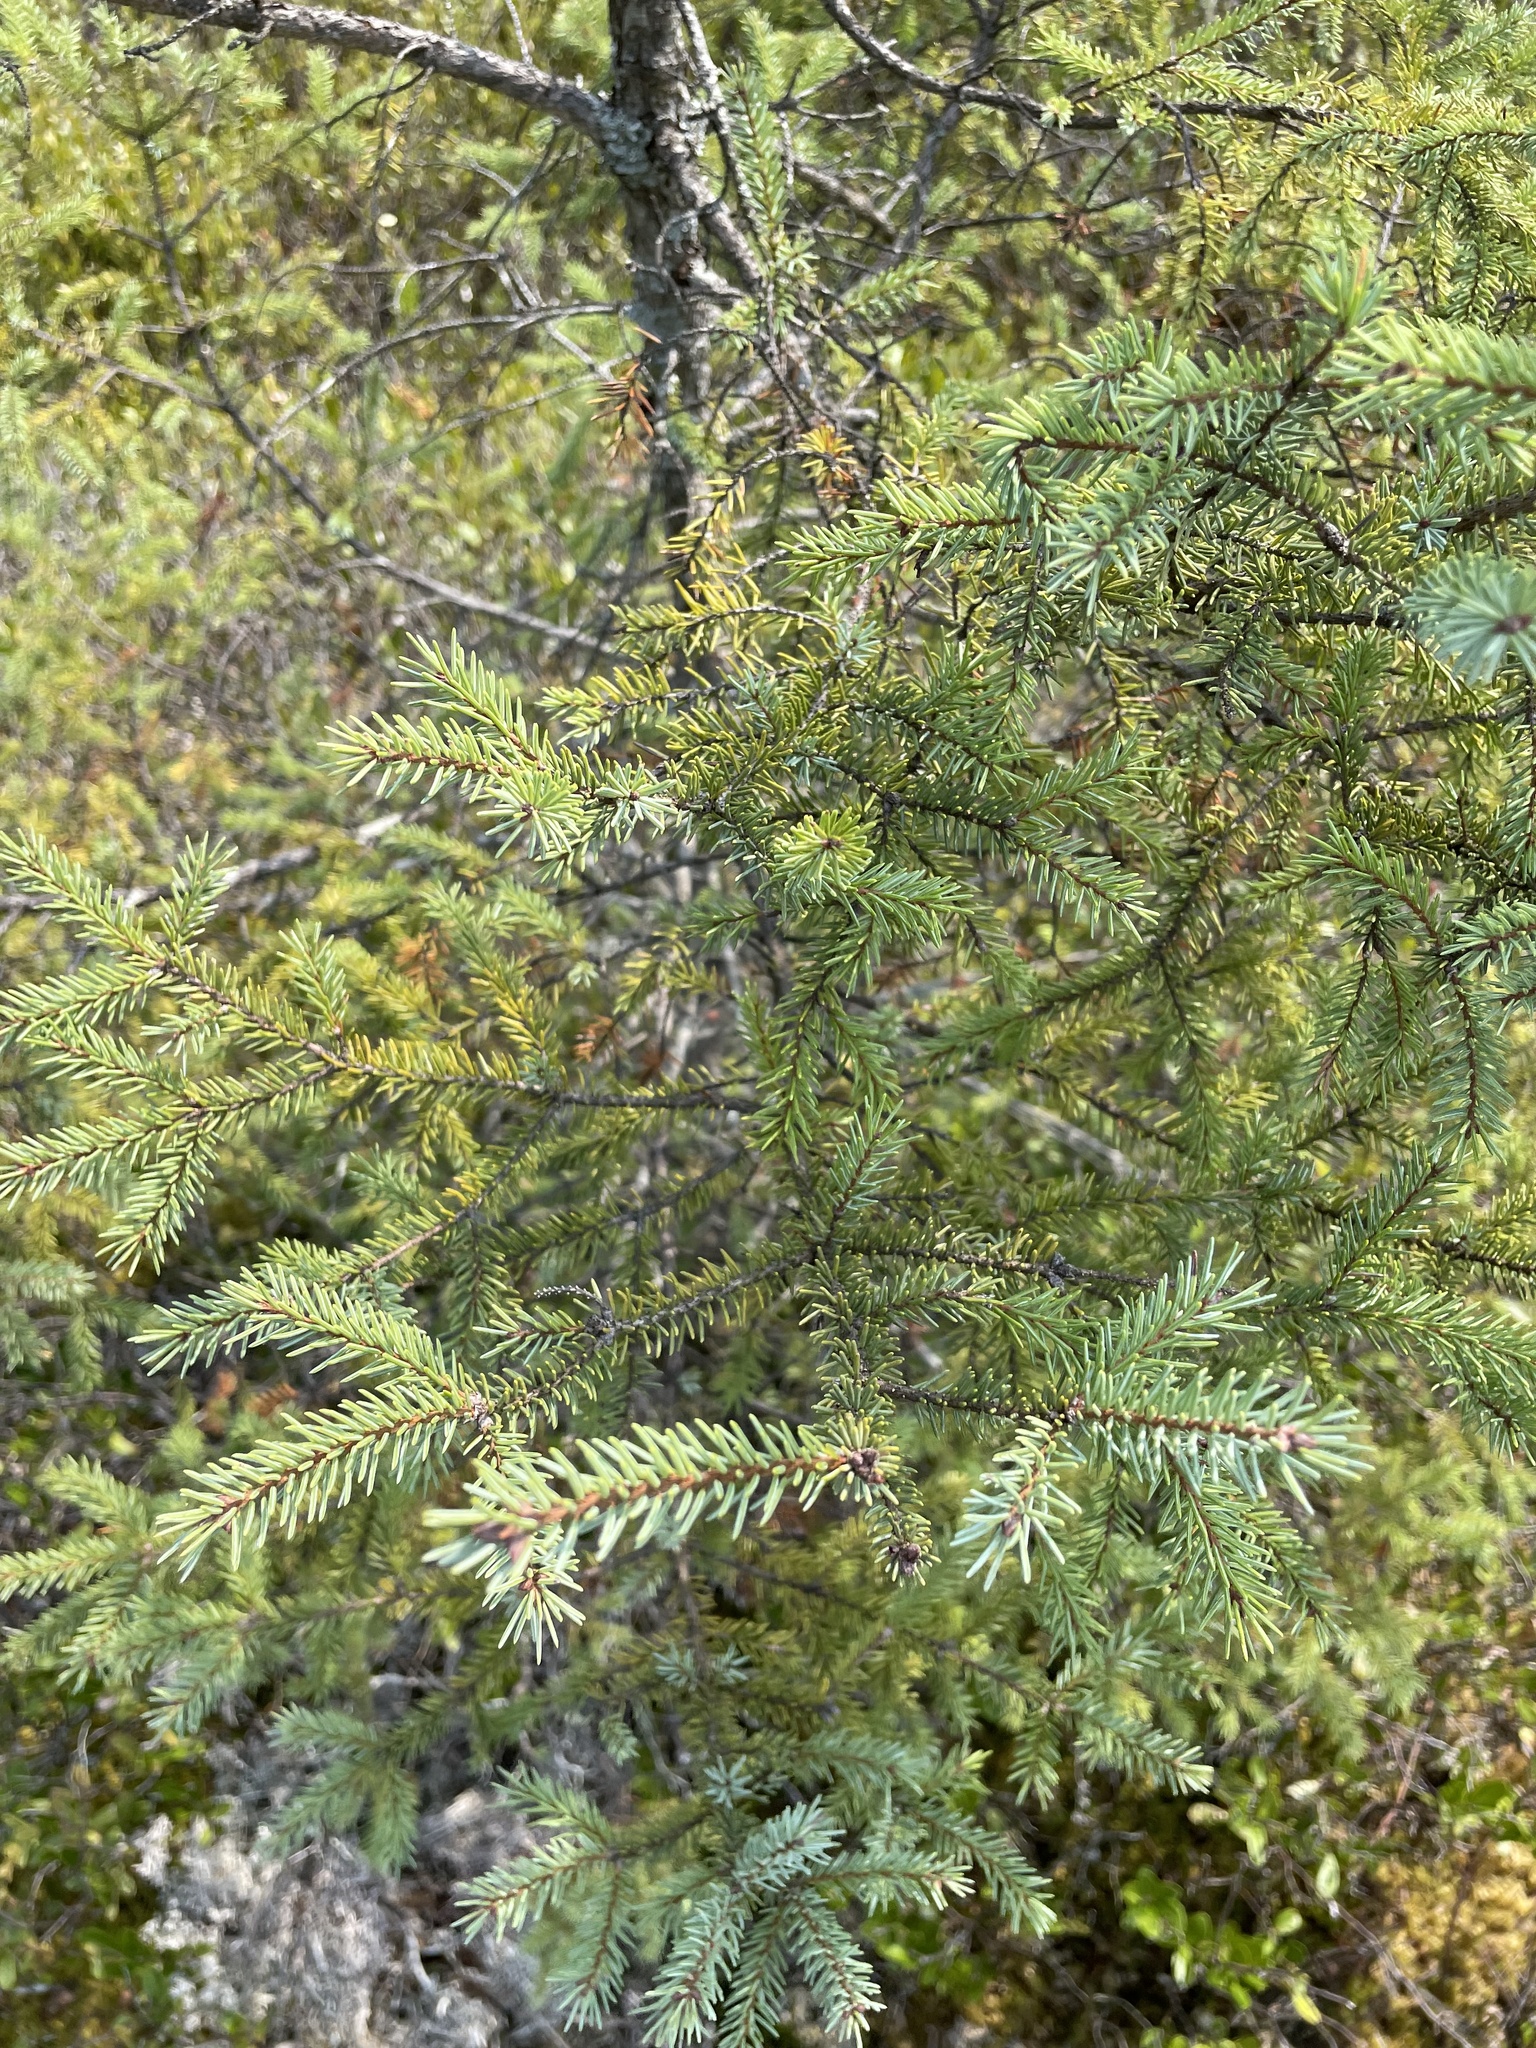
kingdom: Plantae
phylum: Tracheophyta
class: Pinopsida
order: Pinales
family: Pinaceae
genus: Picea
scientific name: Picea mariana
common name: Black spruce
